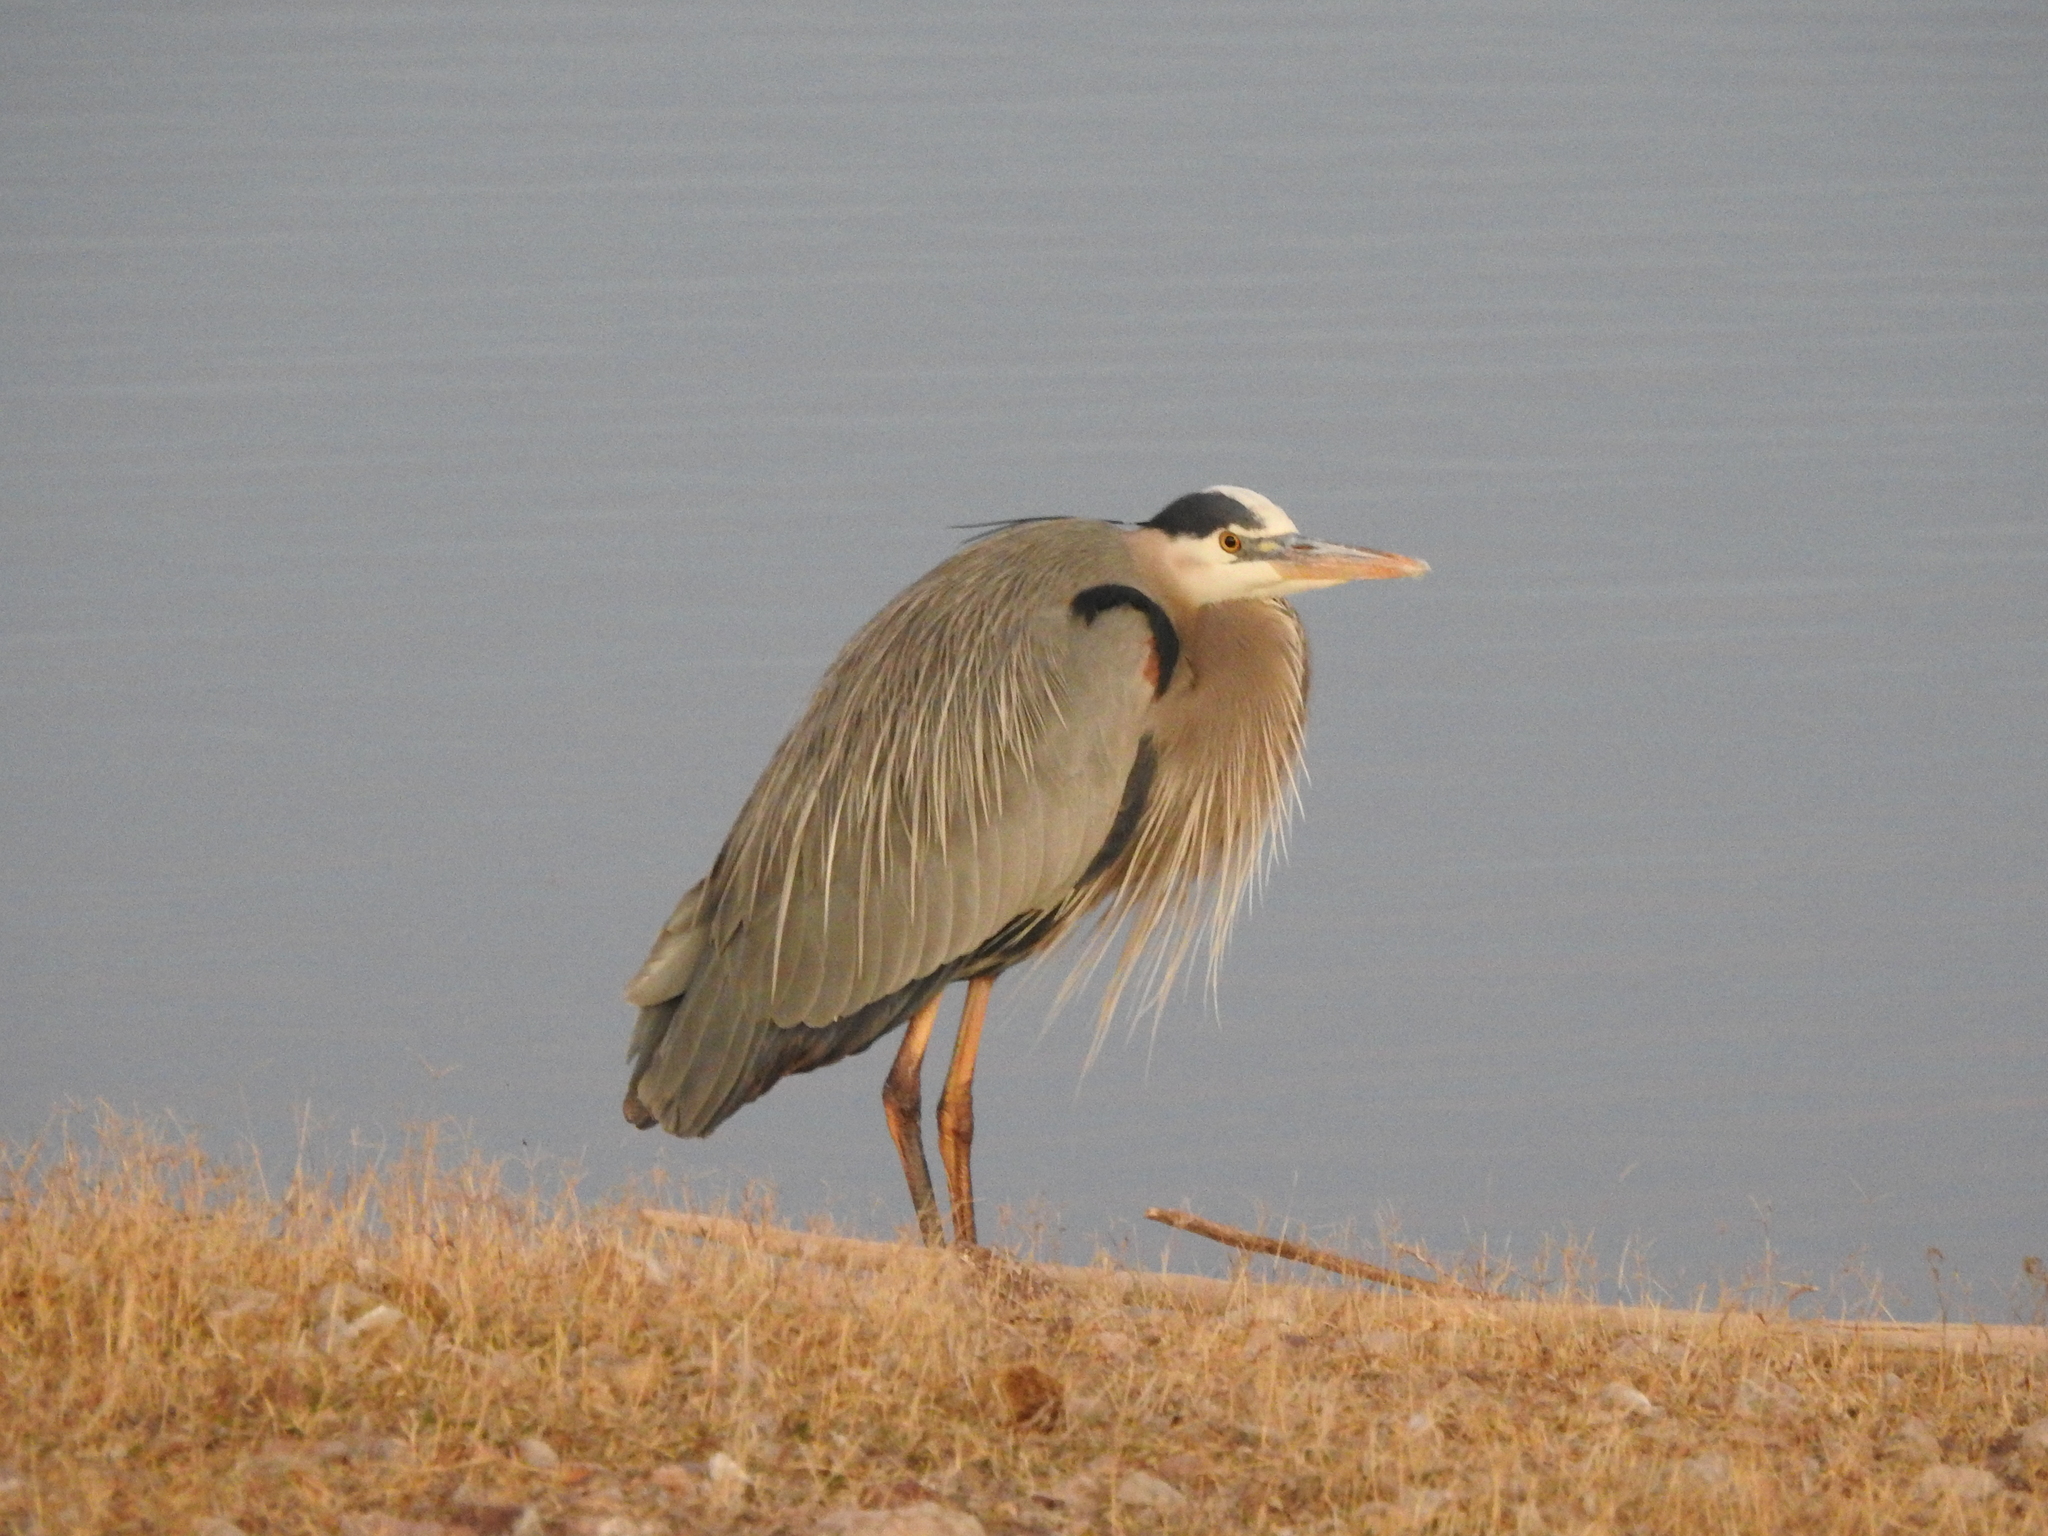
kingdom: Animalia
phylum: Chordata
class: Aves
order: Pelecaniformes
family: Ardeidae
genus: Ardea
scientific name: Ardea herodias
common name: Great blue heron
